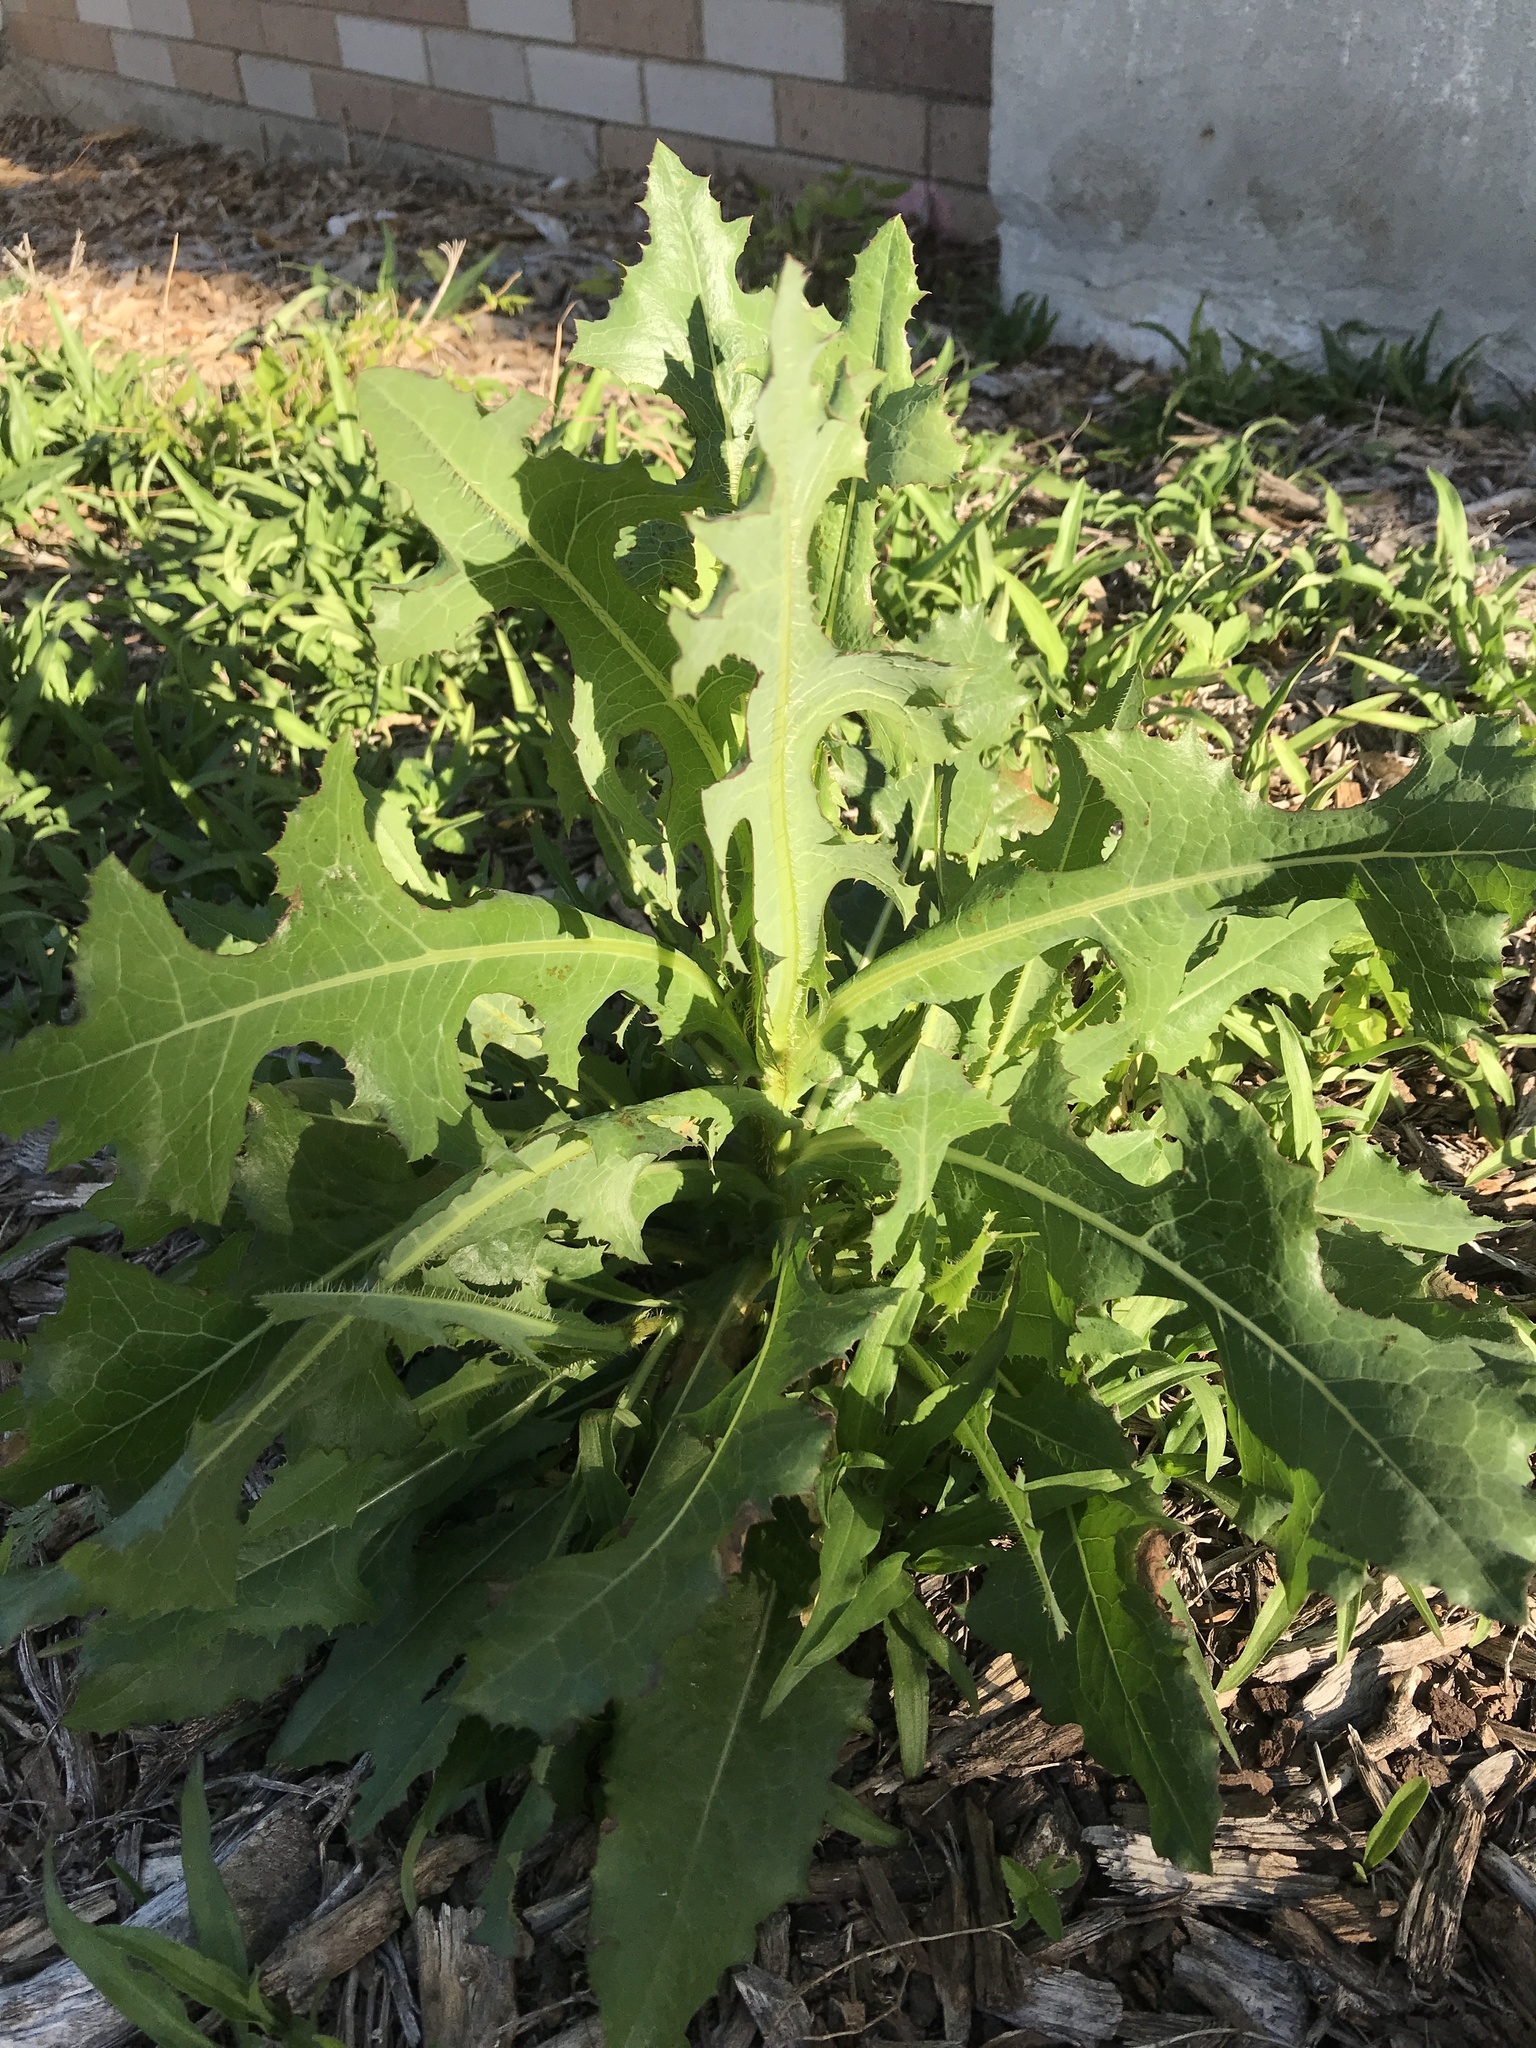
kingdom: Plantae
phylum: Tracheophyta
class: Magnoliopsida
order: Asterales
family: Asteraceae
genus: Lactuca
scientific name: Lactuca serriola
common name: Prickly lettuce
